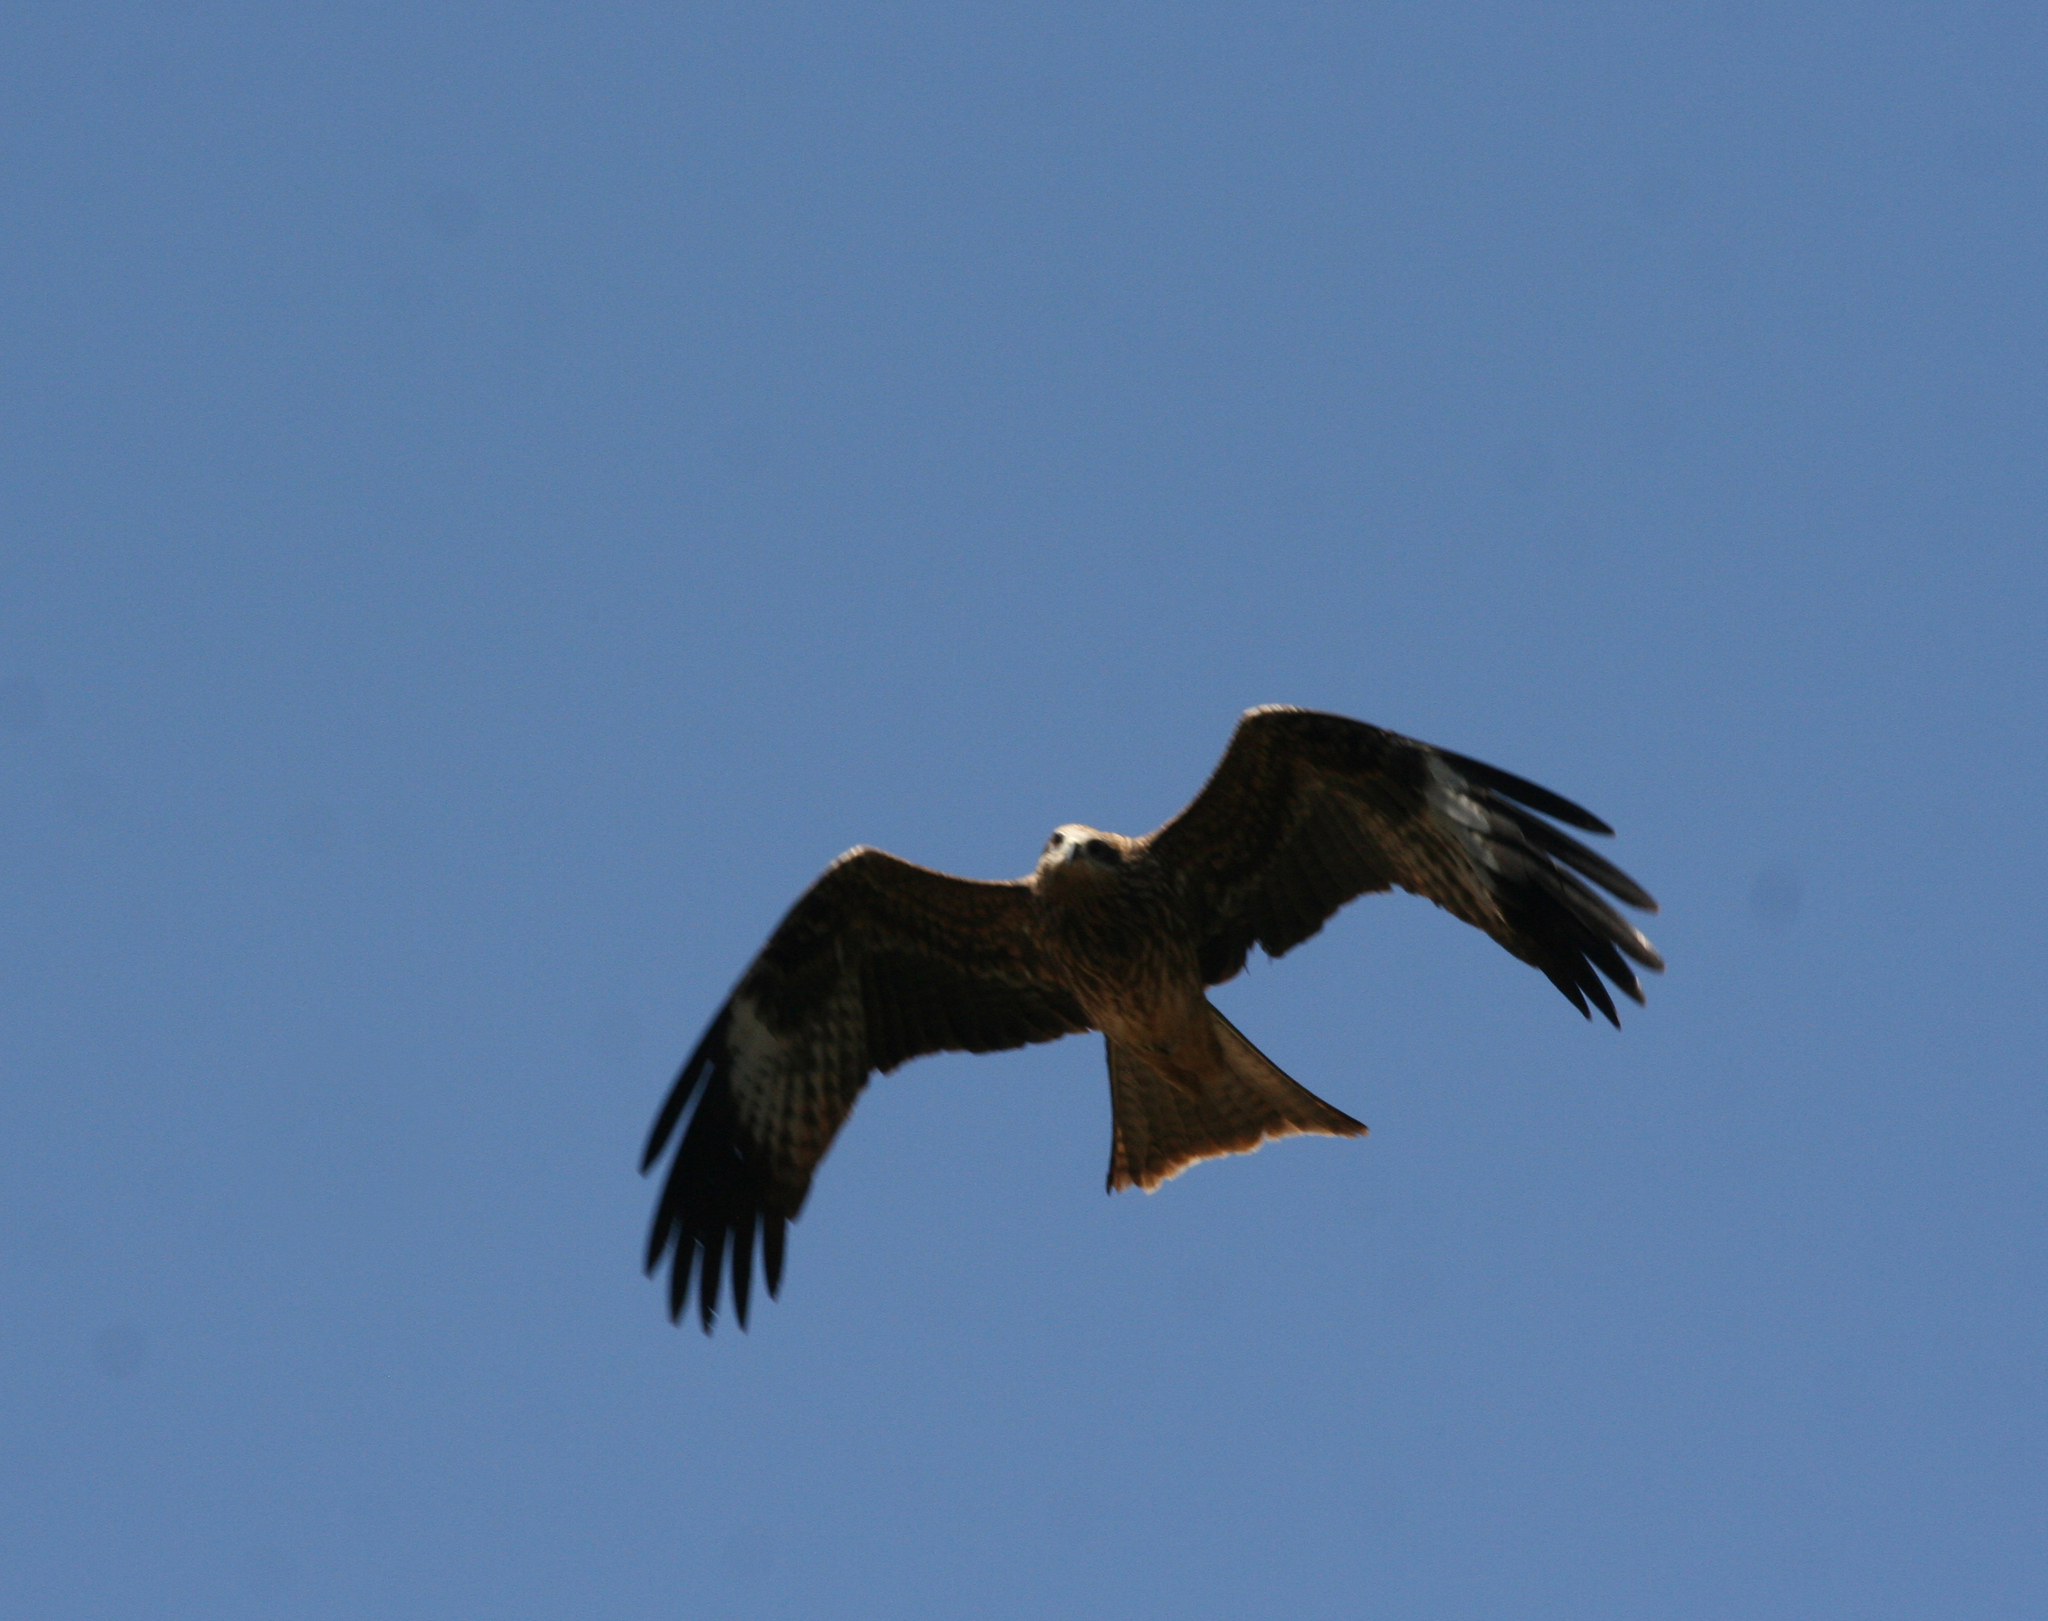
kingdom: Animalia
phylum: Chordata
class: Aves
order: Accipitriformes
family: Accipitridae
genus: Milvus
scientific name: Milvus migrans
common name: Black kite
